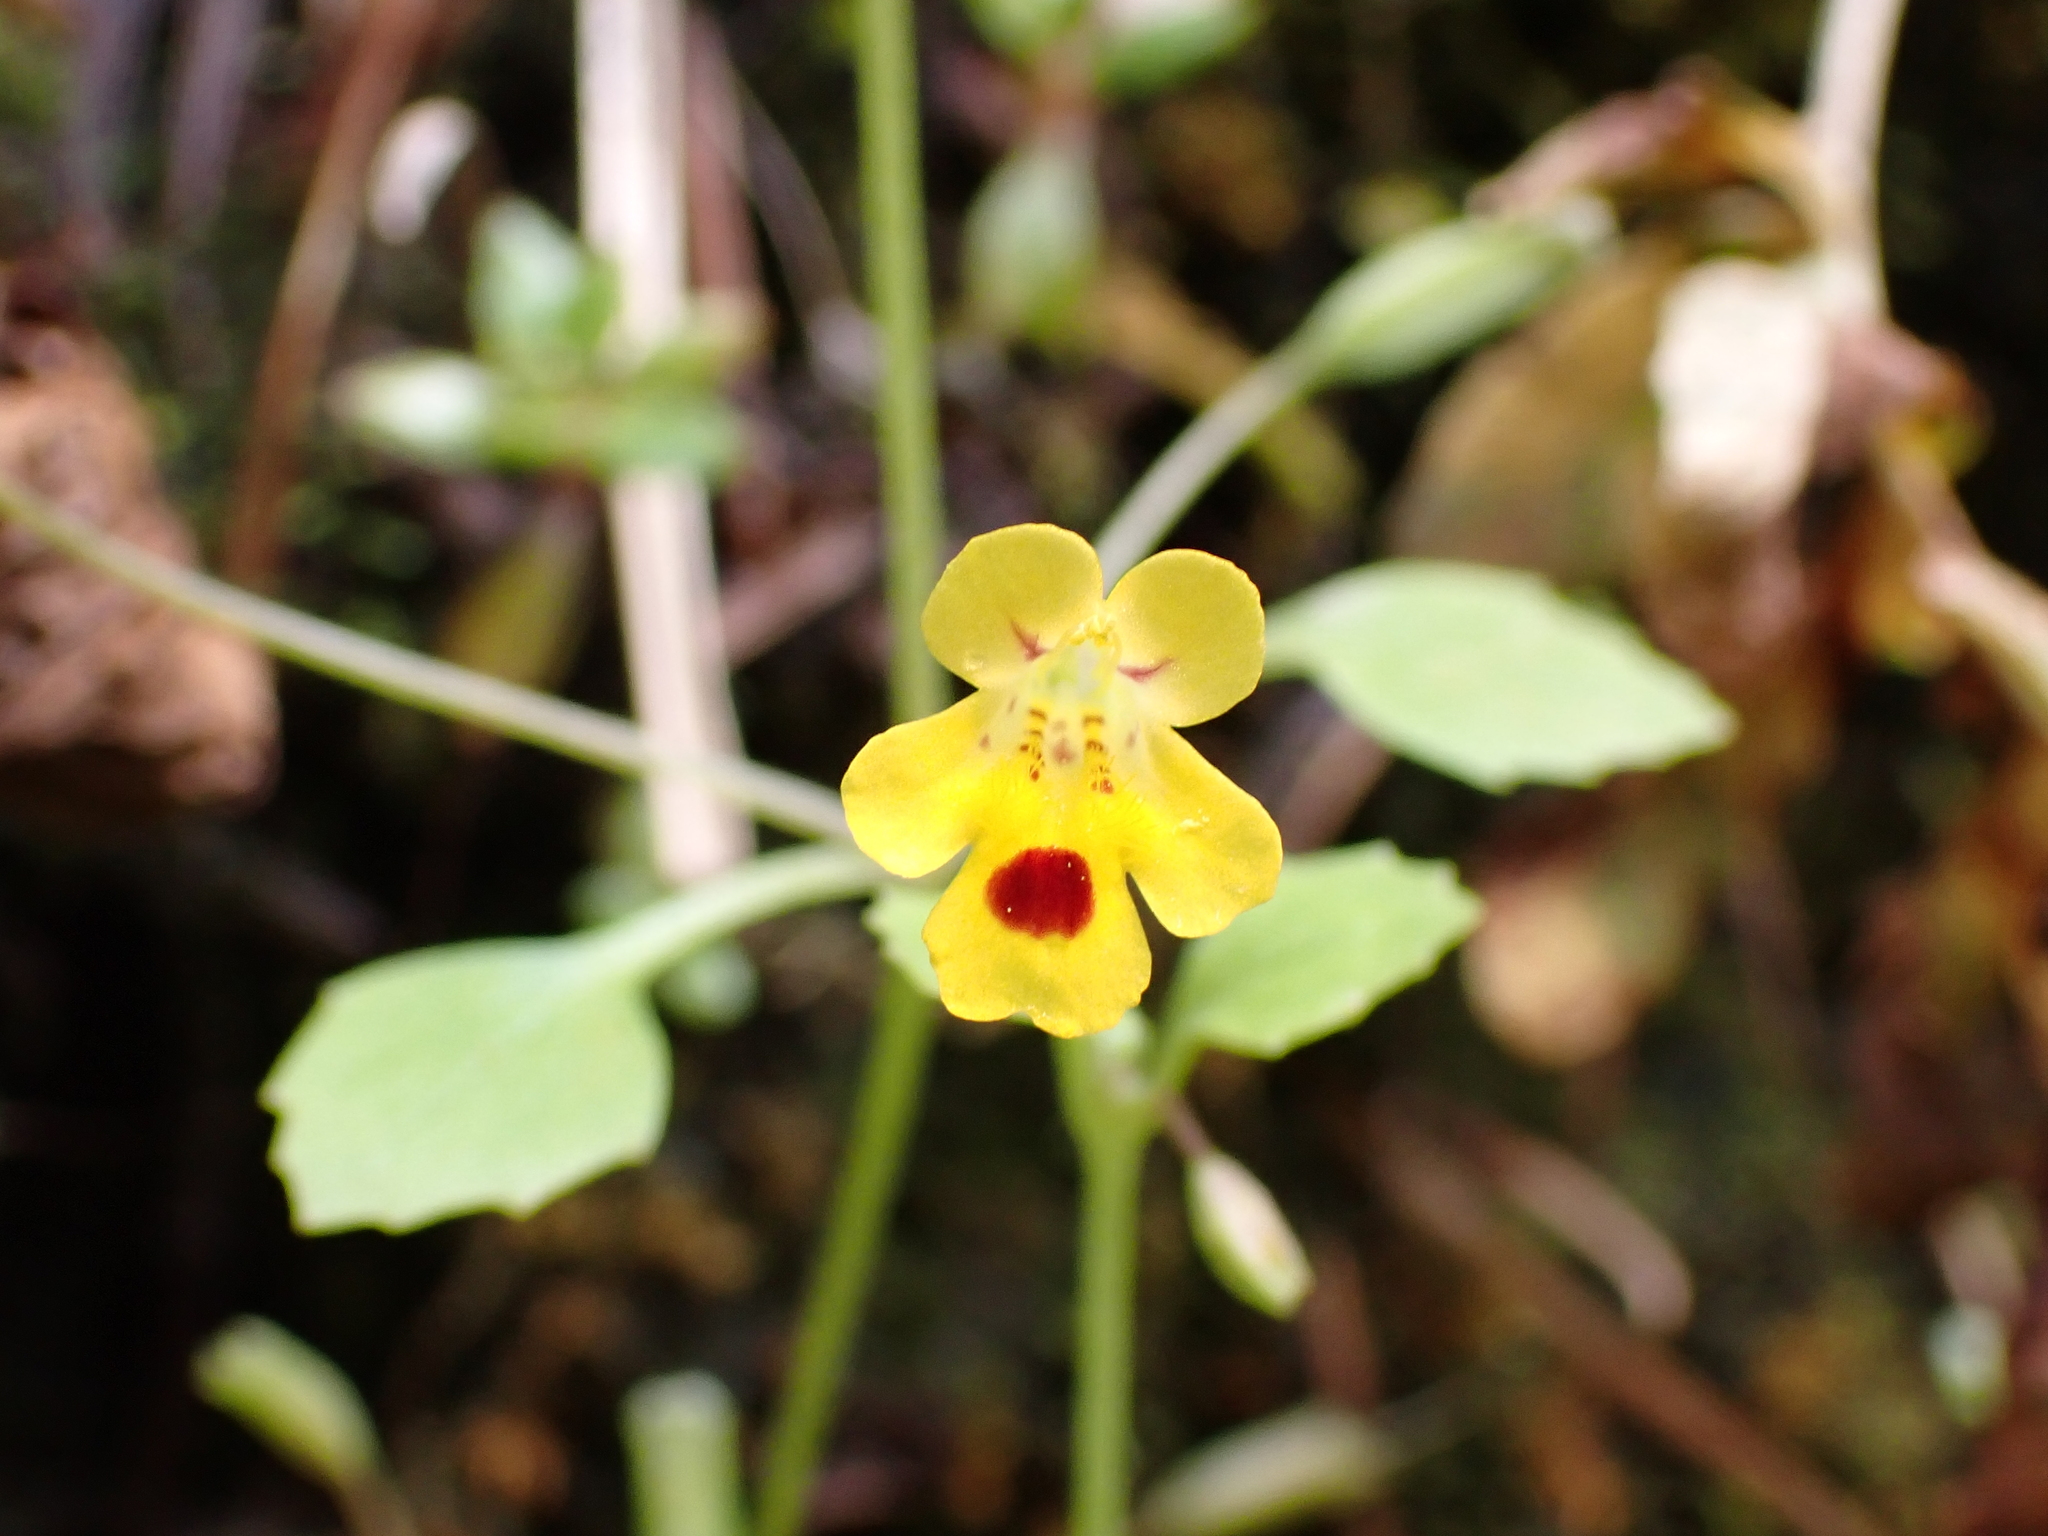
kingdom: Plantae
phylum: Tracheophyta
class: Magnoliopsida
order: Lamiales
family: Phrymaceae
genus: Erythranthe
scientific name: Erythranthe alsinoides
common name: Chickweed monkeyflower
